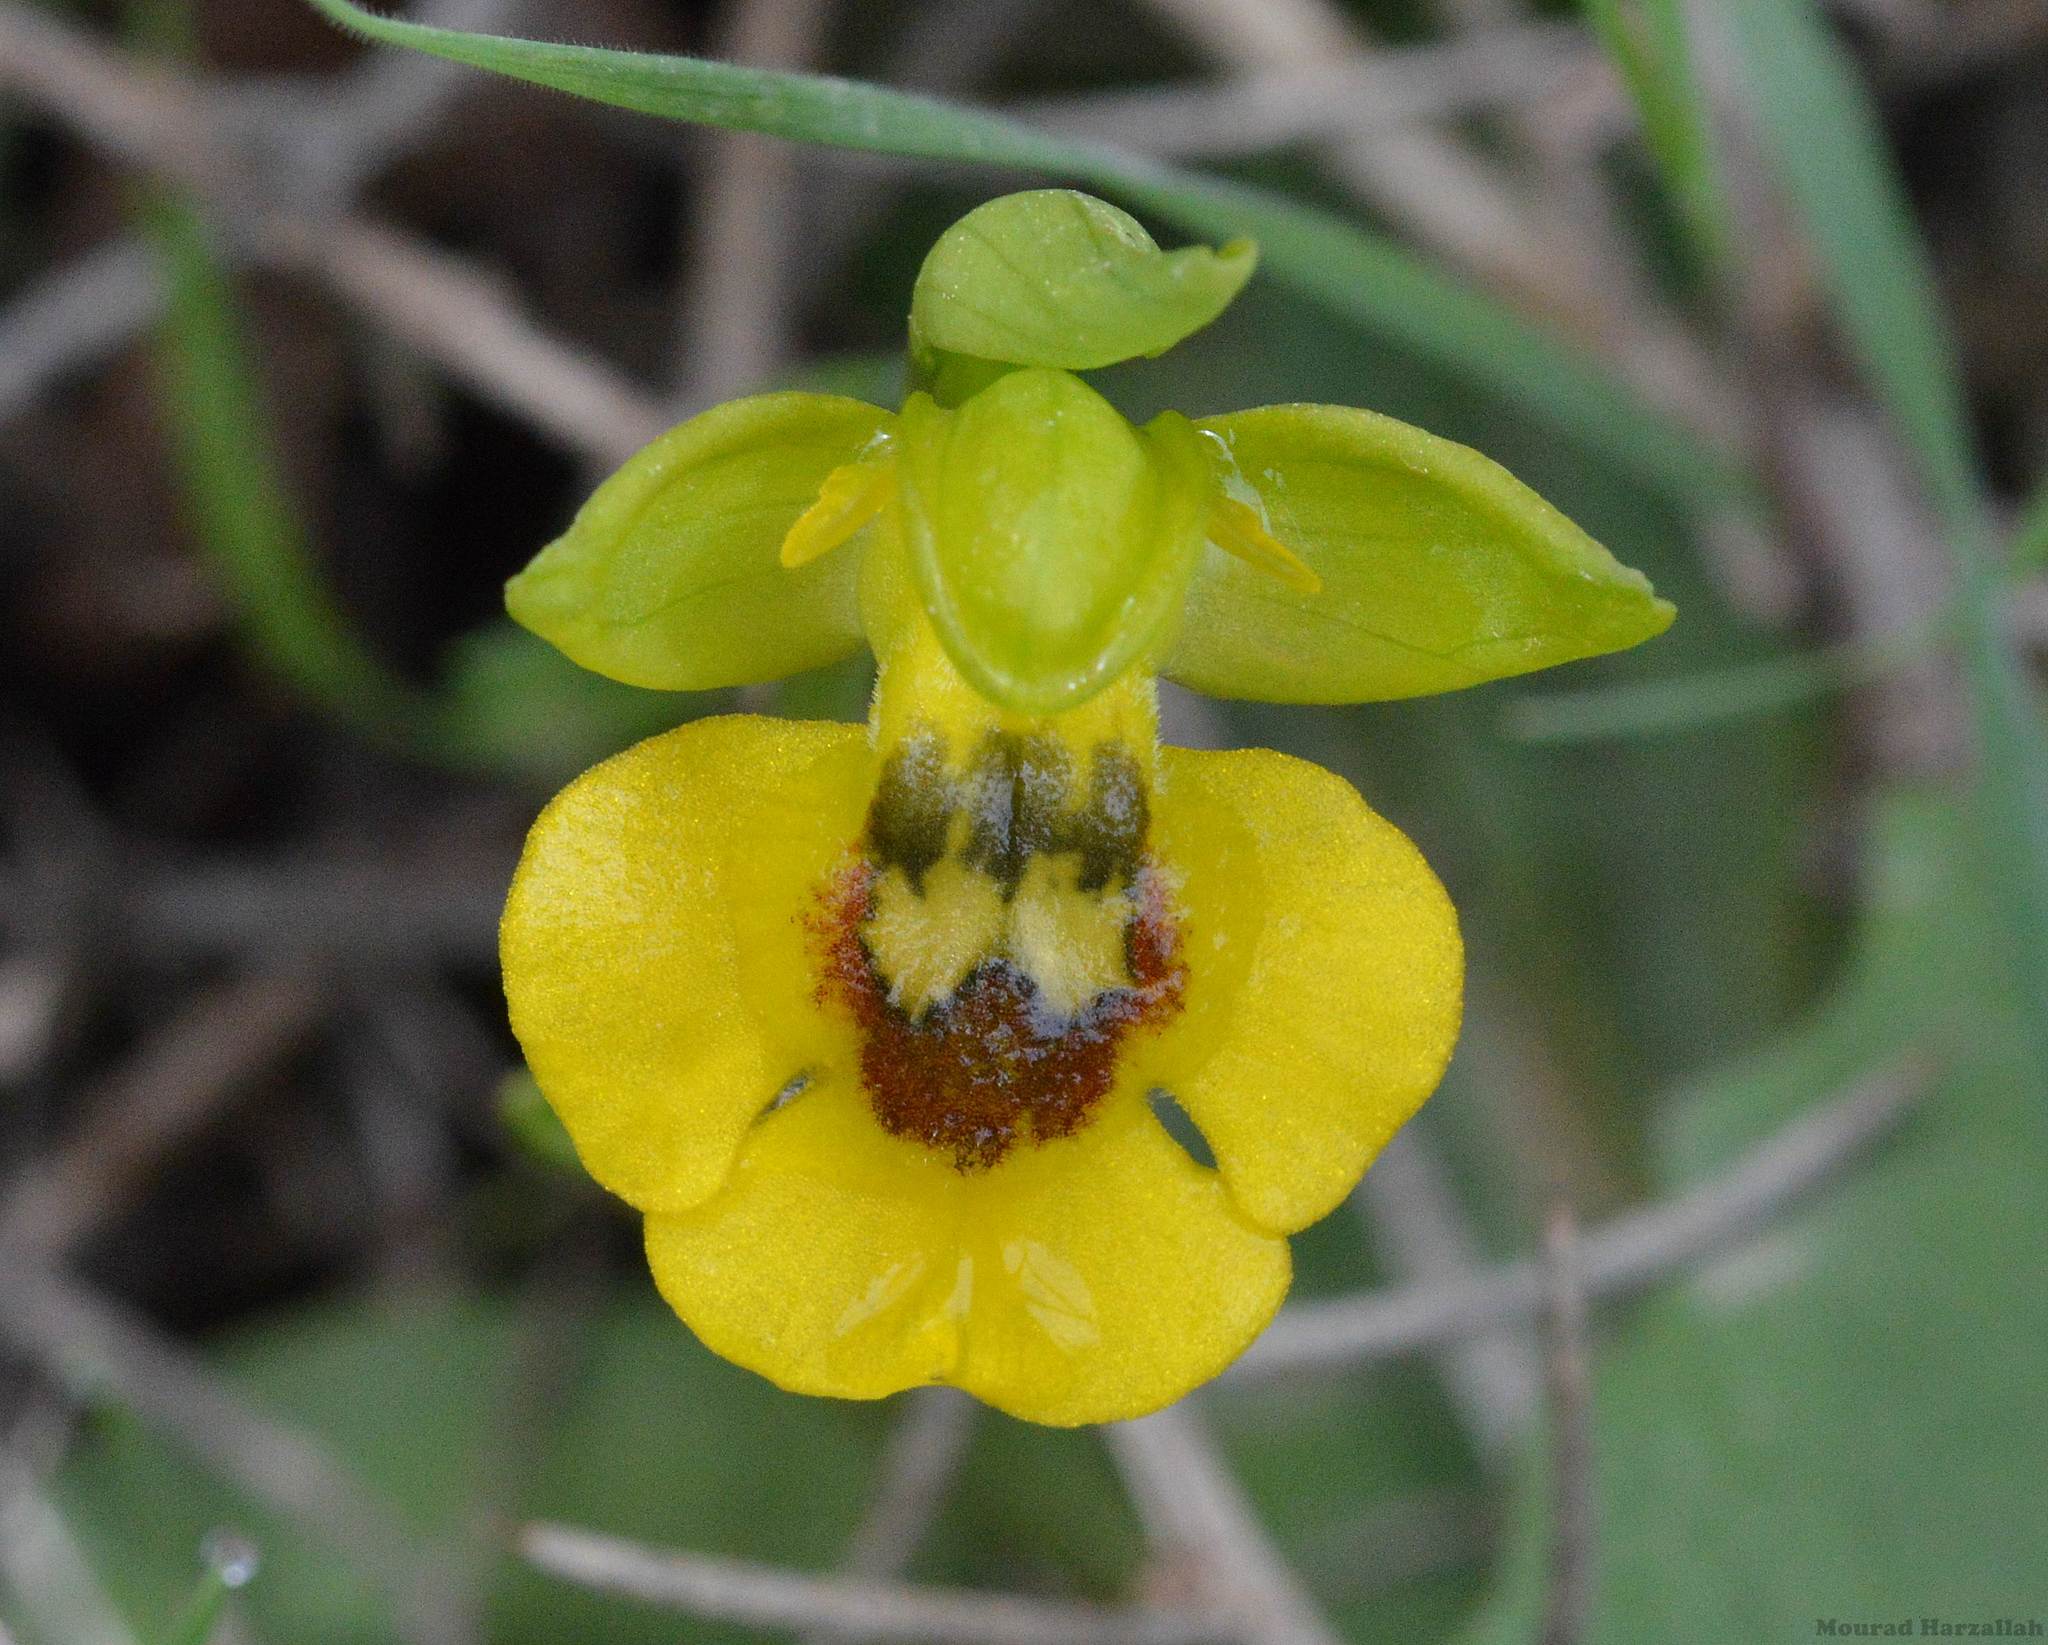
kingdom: Plantae
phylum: Tracheophyta
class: Liliopsida
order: Asparagales
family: Orchidaceae
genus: Ophrys
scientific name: Ophrys lutea
